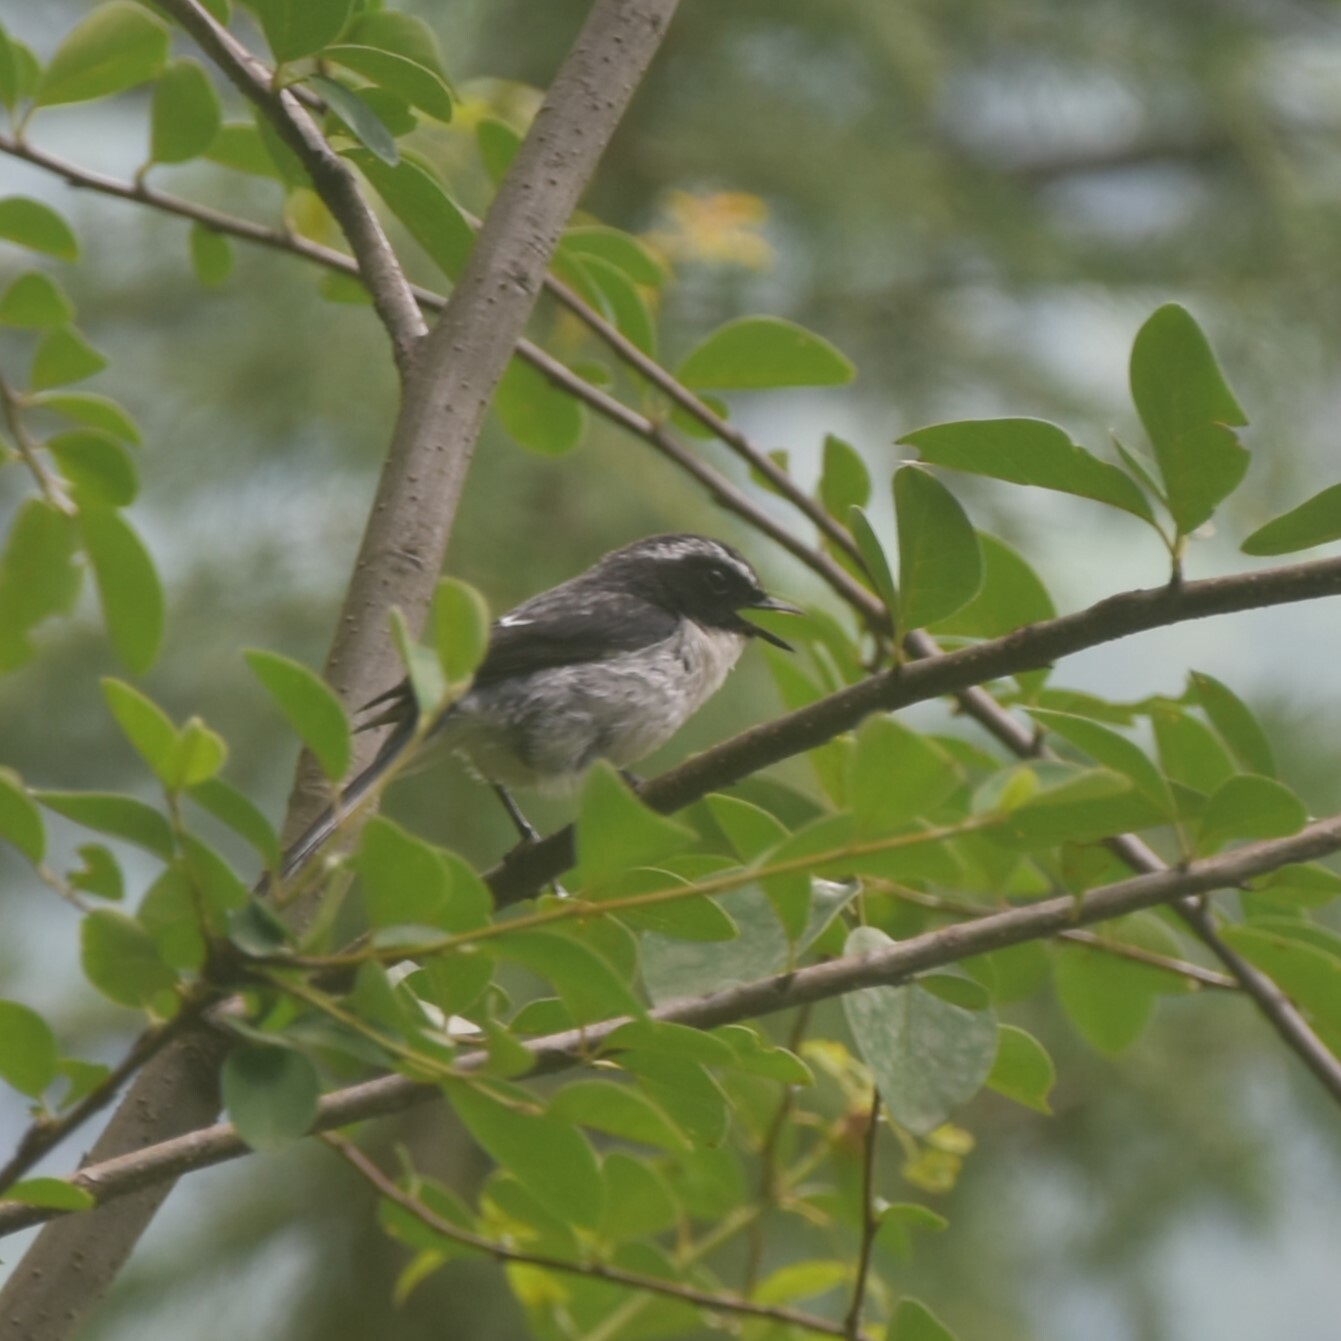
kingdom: Animalia
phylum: Chordata
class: Aves
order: Passeriformes
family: Muscicapidae
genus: Saxicola
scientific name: Saxicola ferreus
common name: Grey bush chat
